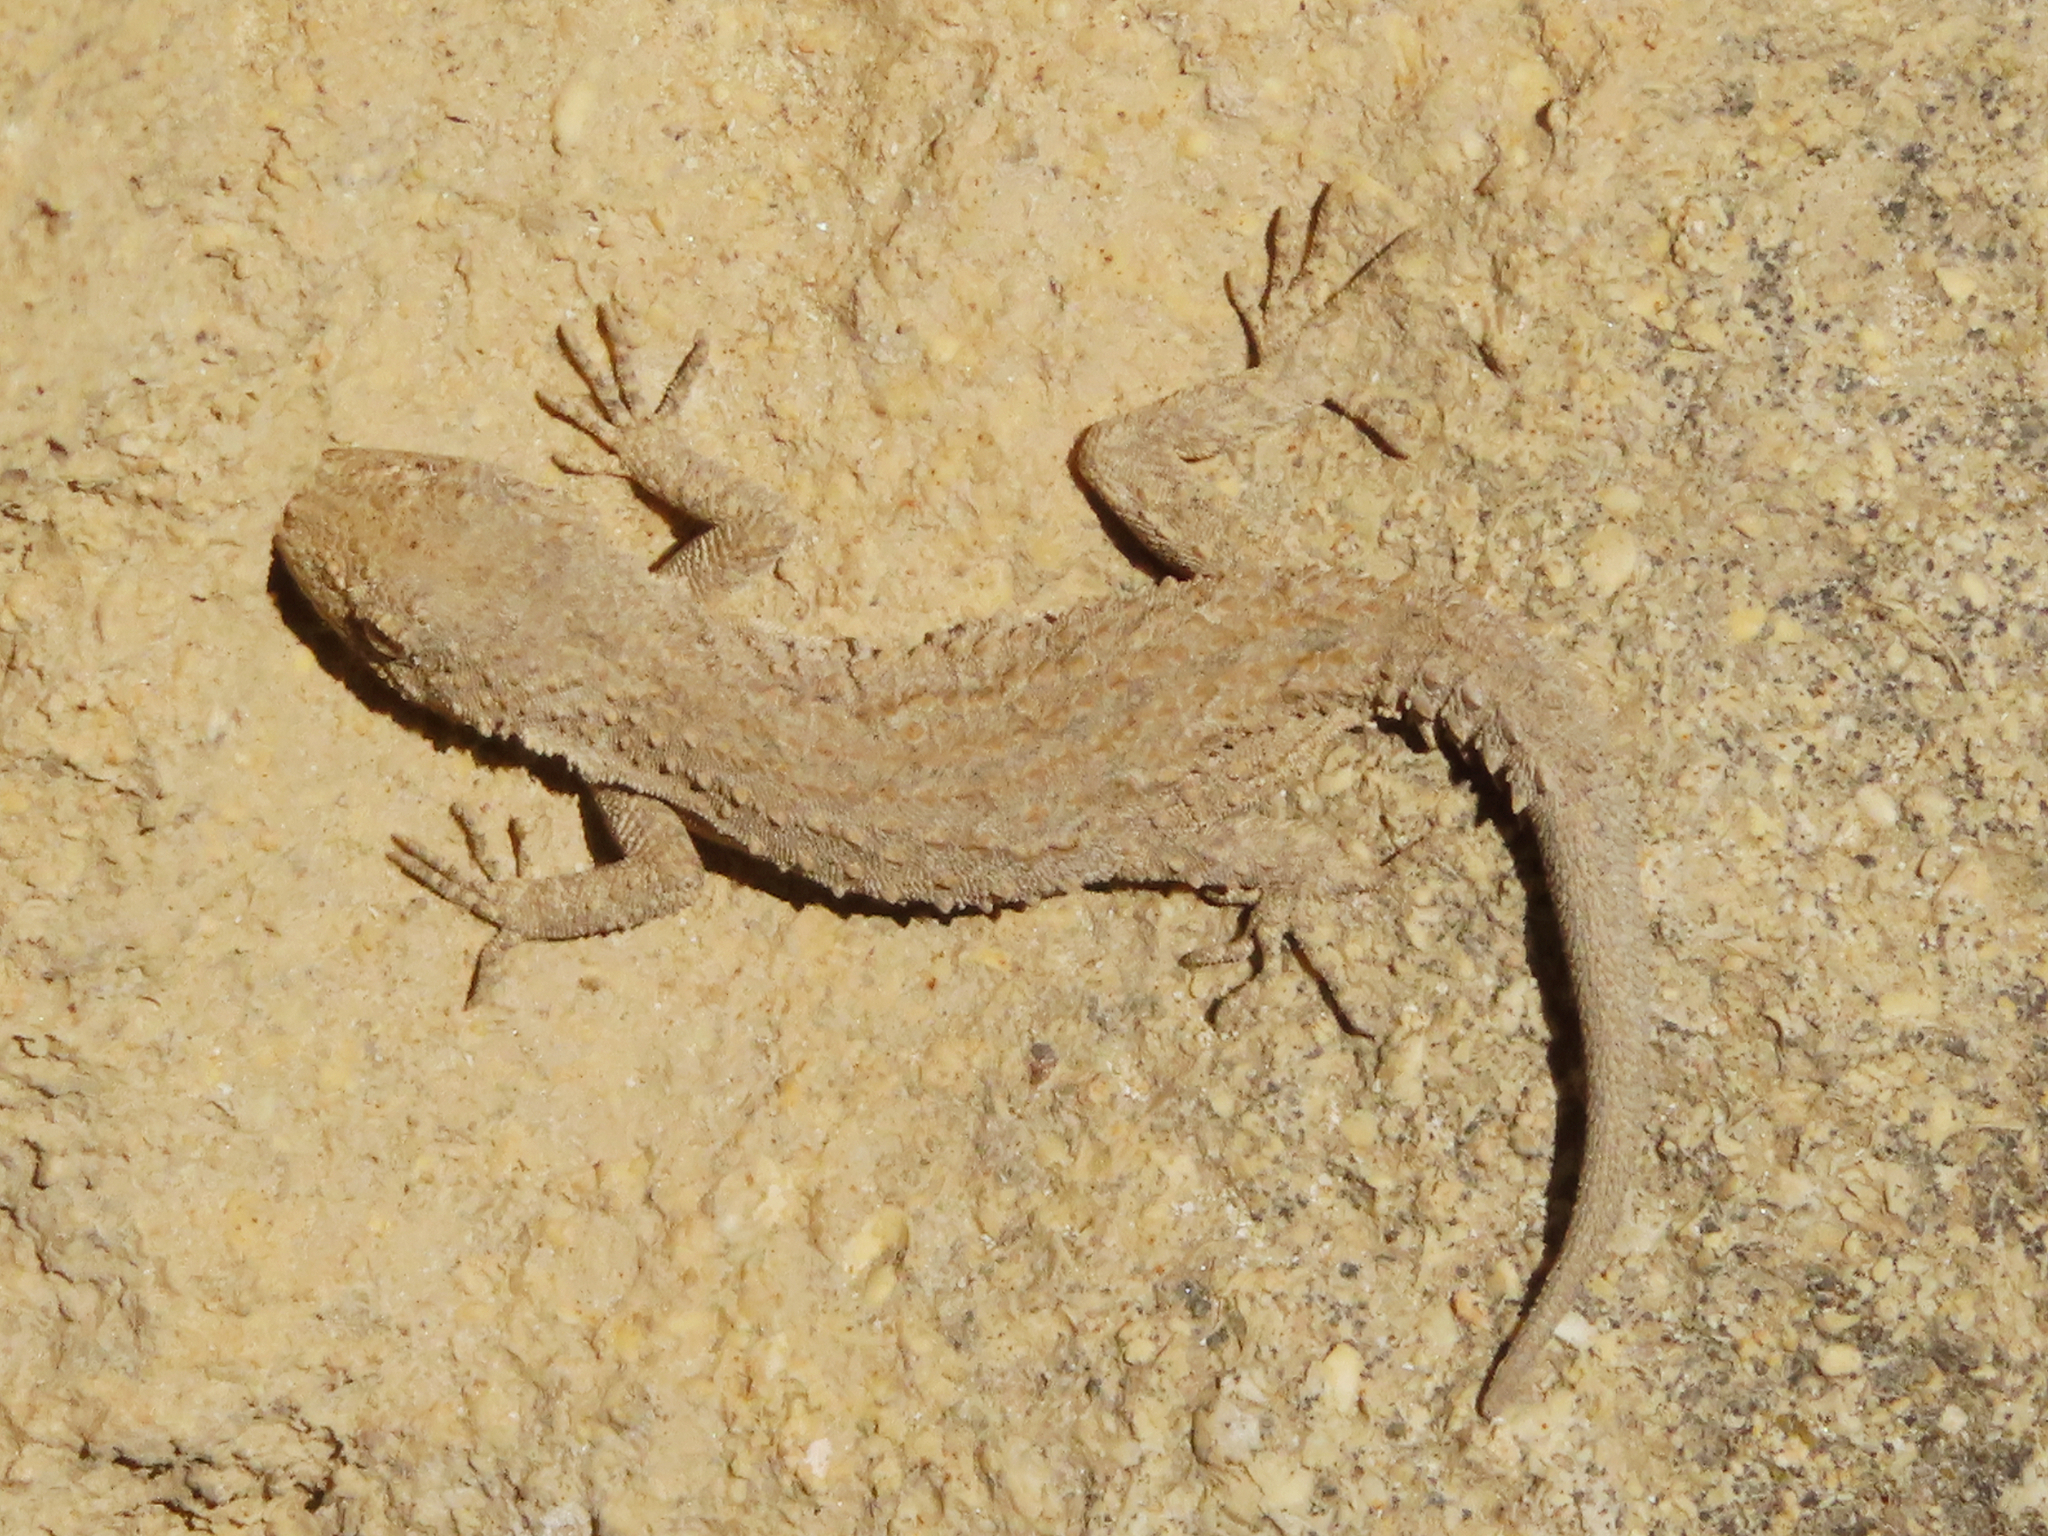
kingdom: Animalia
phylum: Chordata
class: Squamata
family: Gekkonidae
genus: Mediodactylus
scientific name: Mediodactylus russowii
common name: Grey thin-toed gecko
